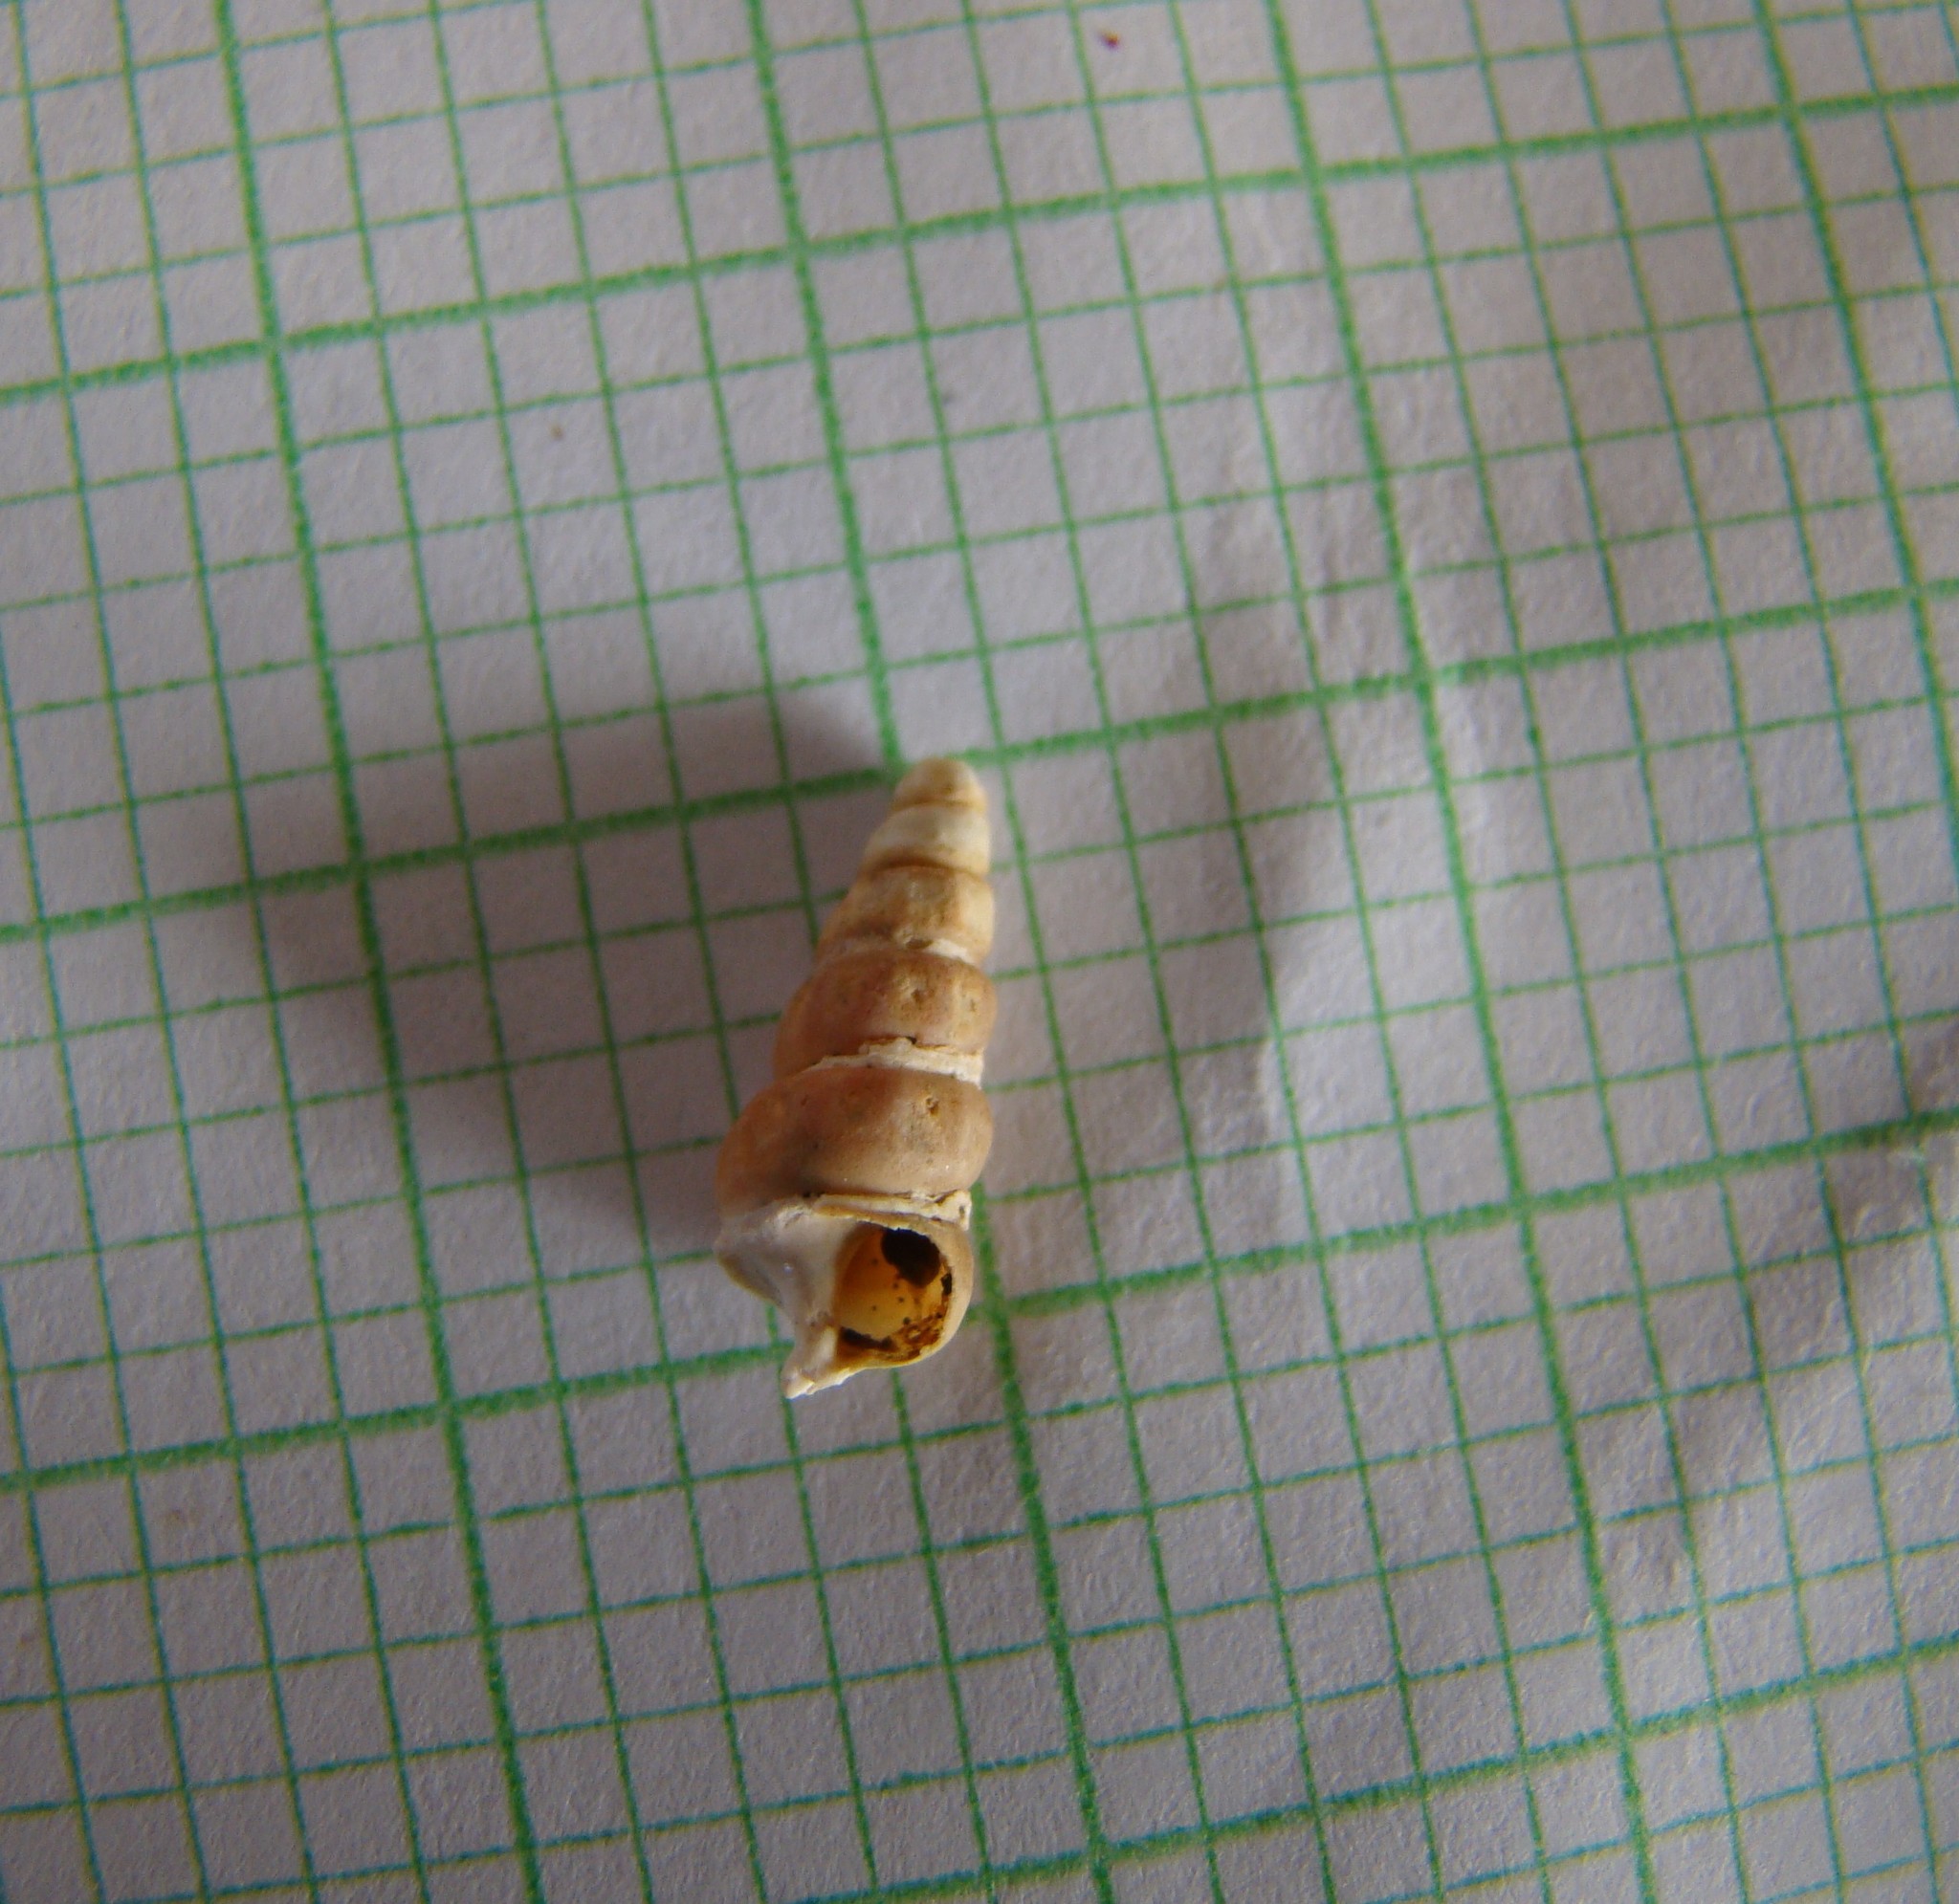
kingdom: Animalia
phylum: Mollusca
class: Gastropoda
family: Batillariidae
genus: Zeacumantus
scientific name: Zeacumantus lutulentus
